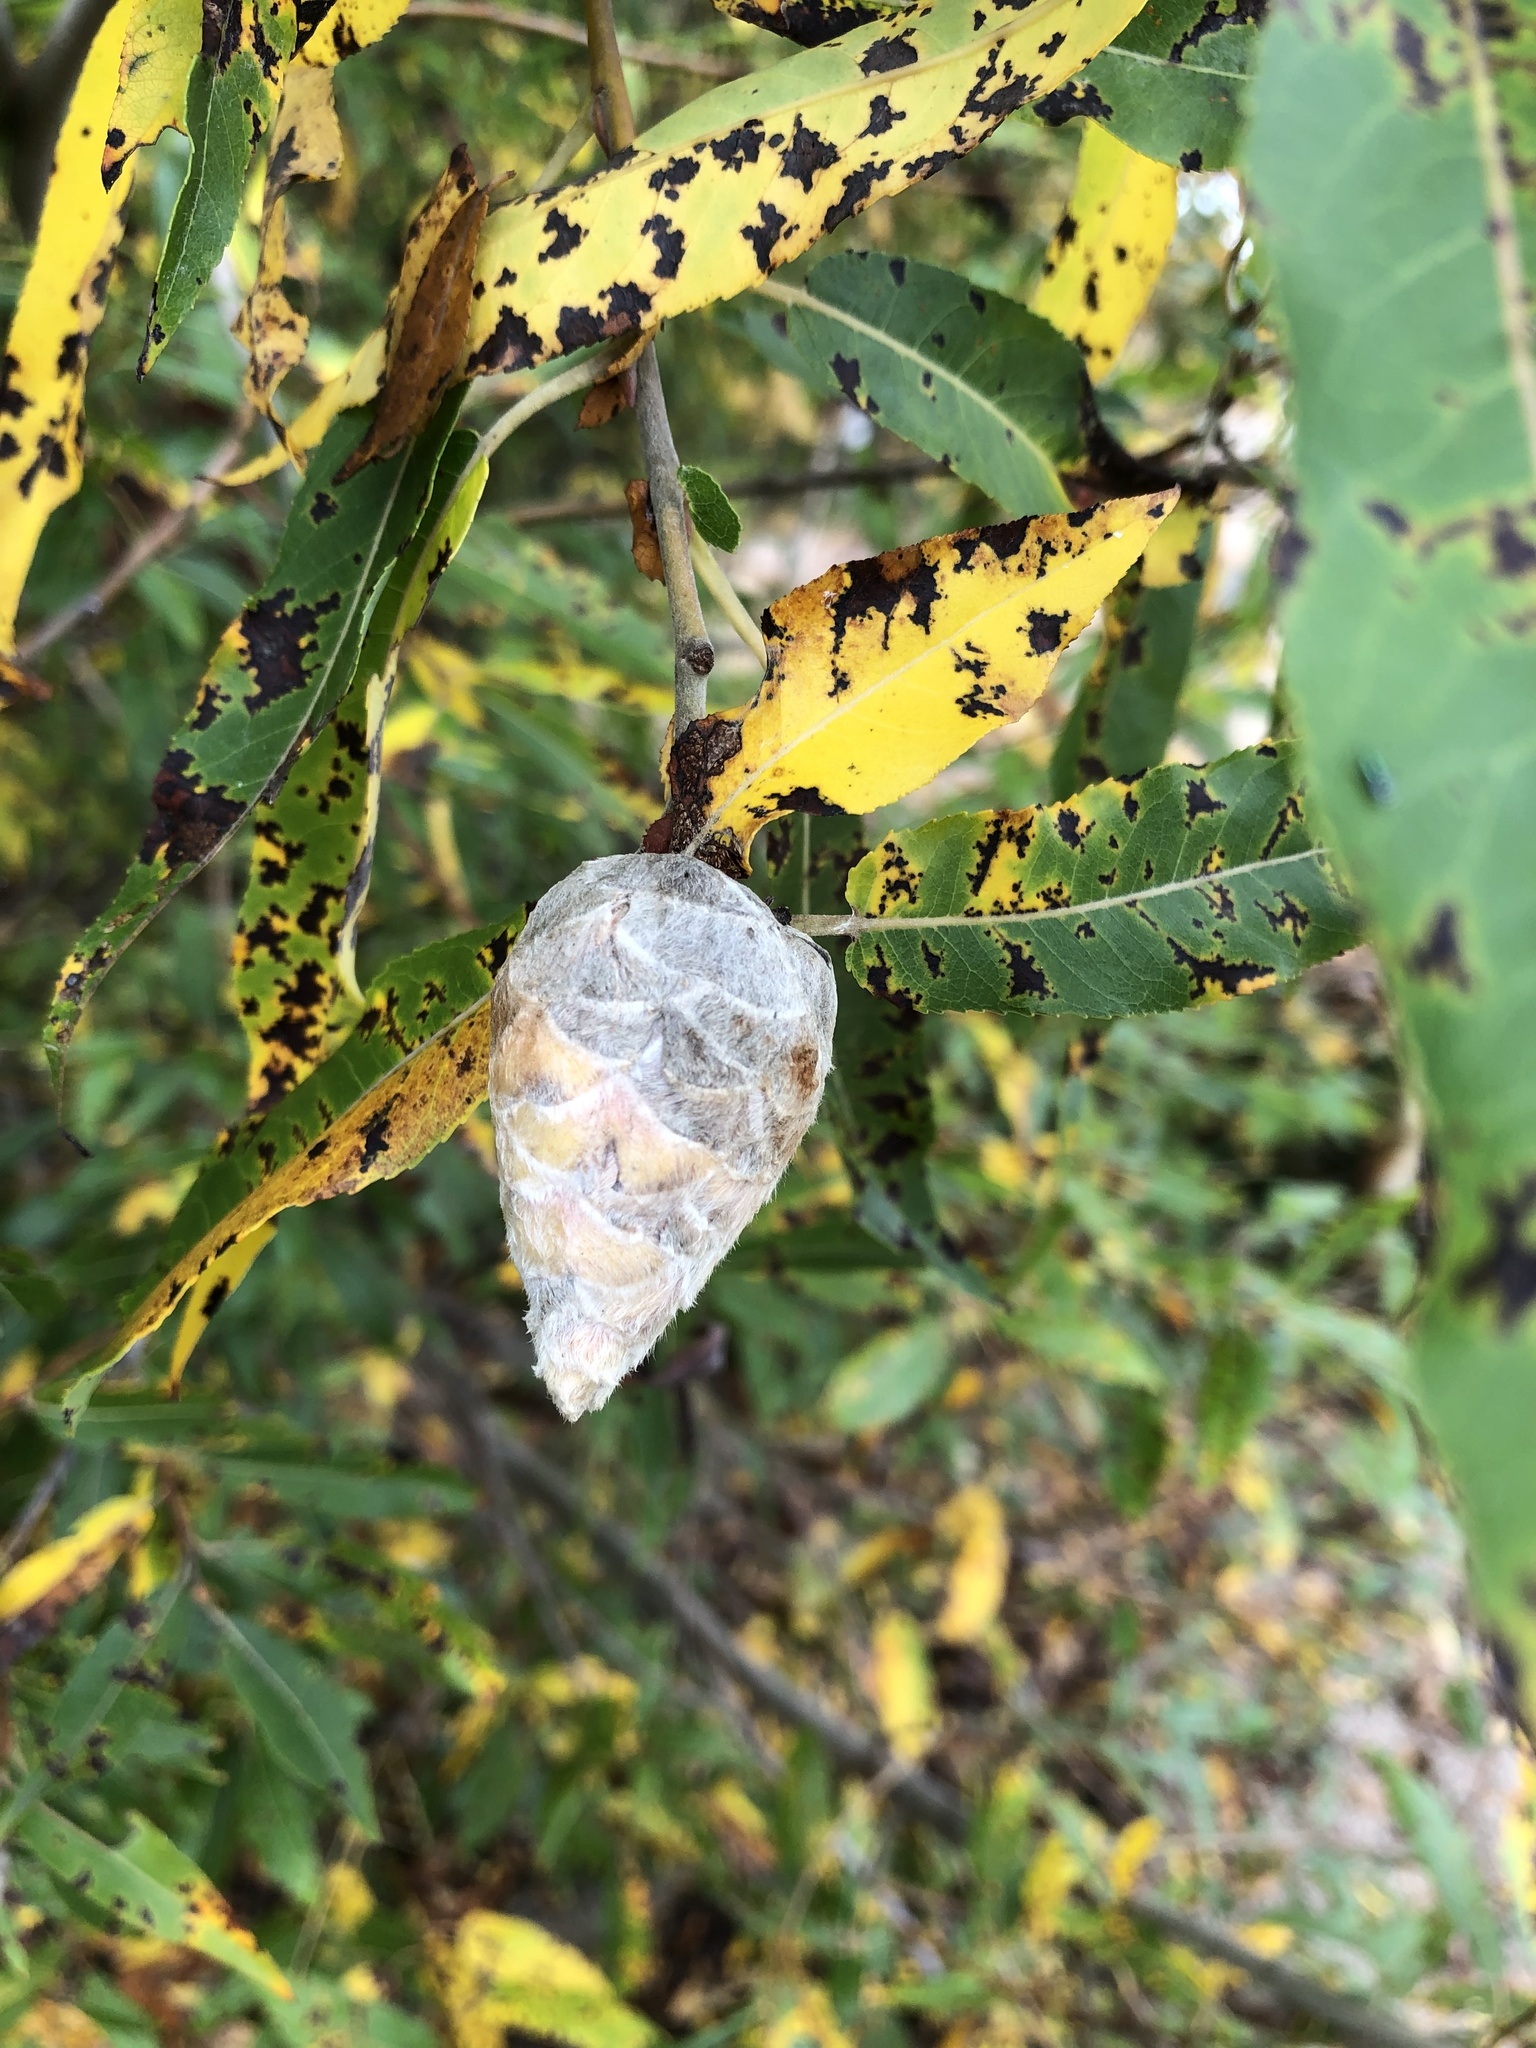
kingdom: Animalia
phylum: Arthropoda
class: Insecta
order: Diptera
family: Cecidomyiidae
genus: Rabdophaga
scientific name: Rabdophaga strobiloides
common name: Willow pinecone gall midge
